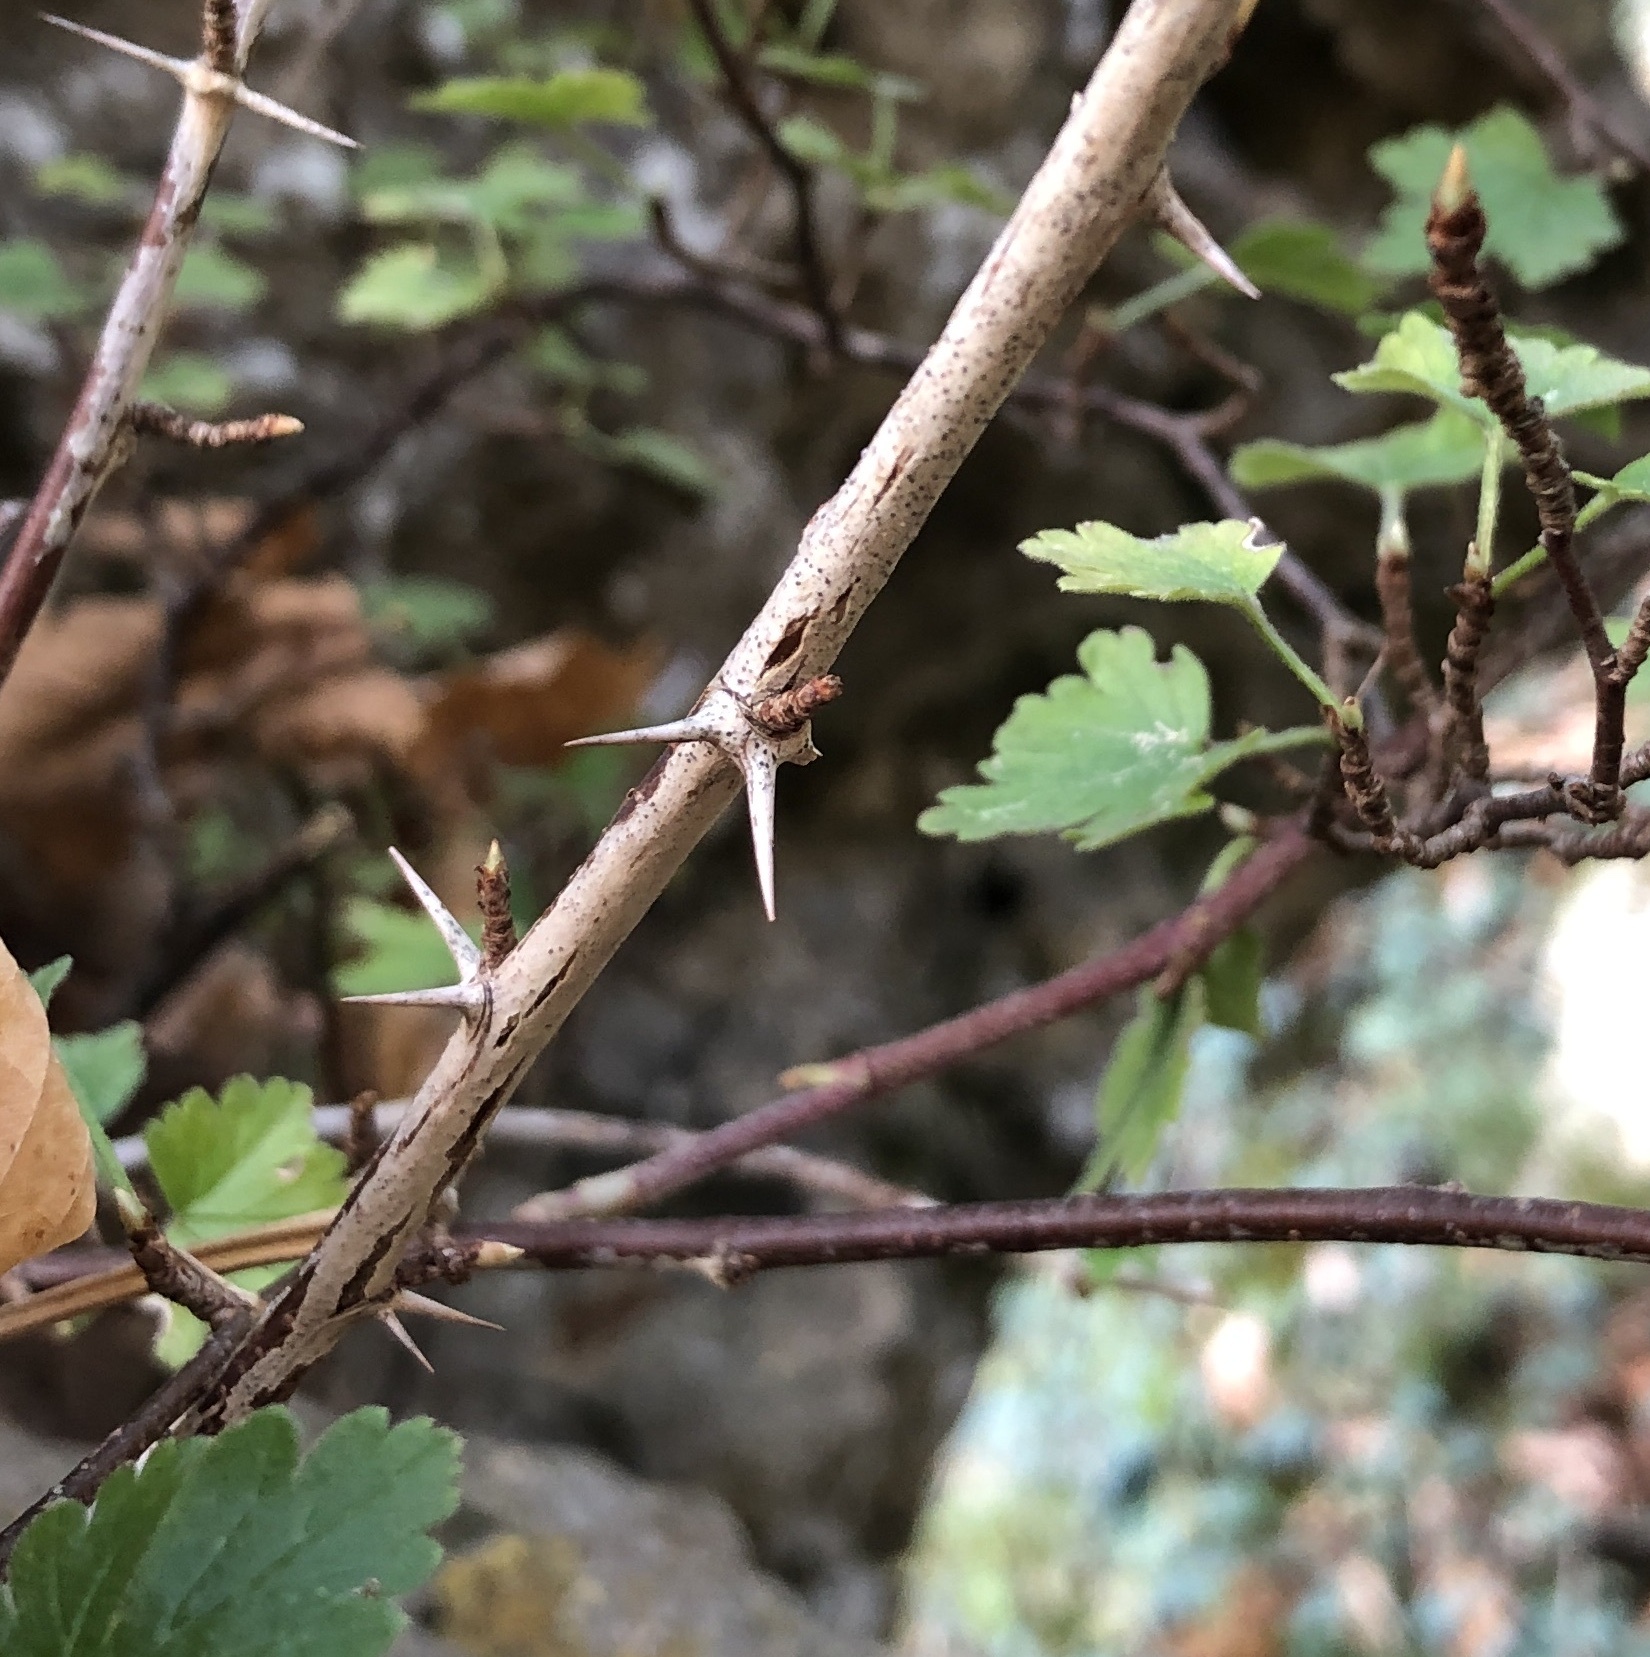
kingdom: Plantae
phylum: Tracheophyta
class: Magnoliopsida
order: Saxifragales
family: Grossulariaceae
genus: Ribes
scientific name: Ribes uva-crispa
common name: Gooseberry
